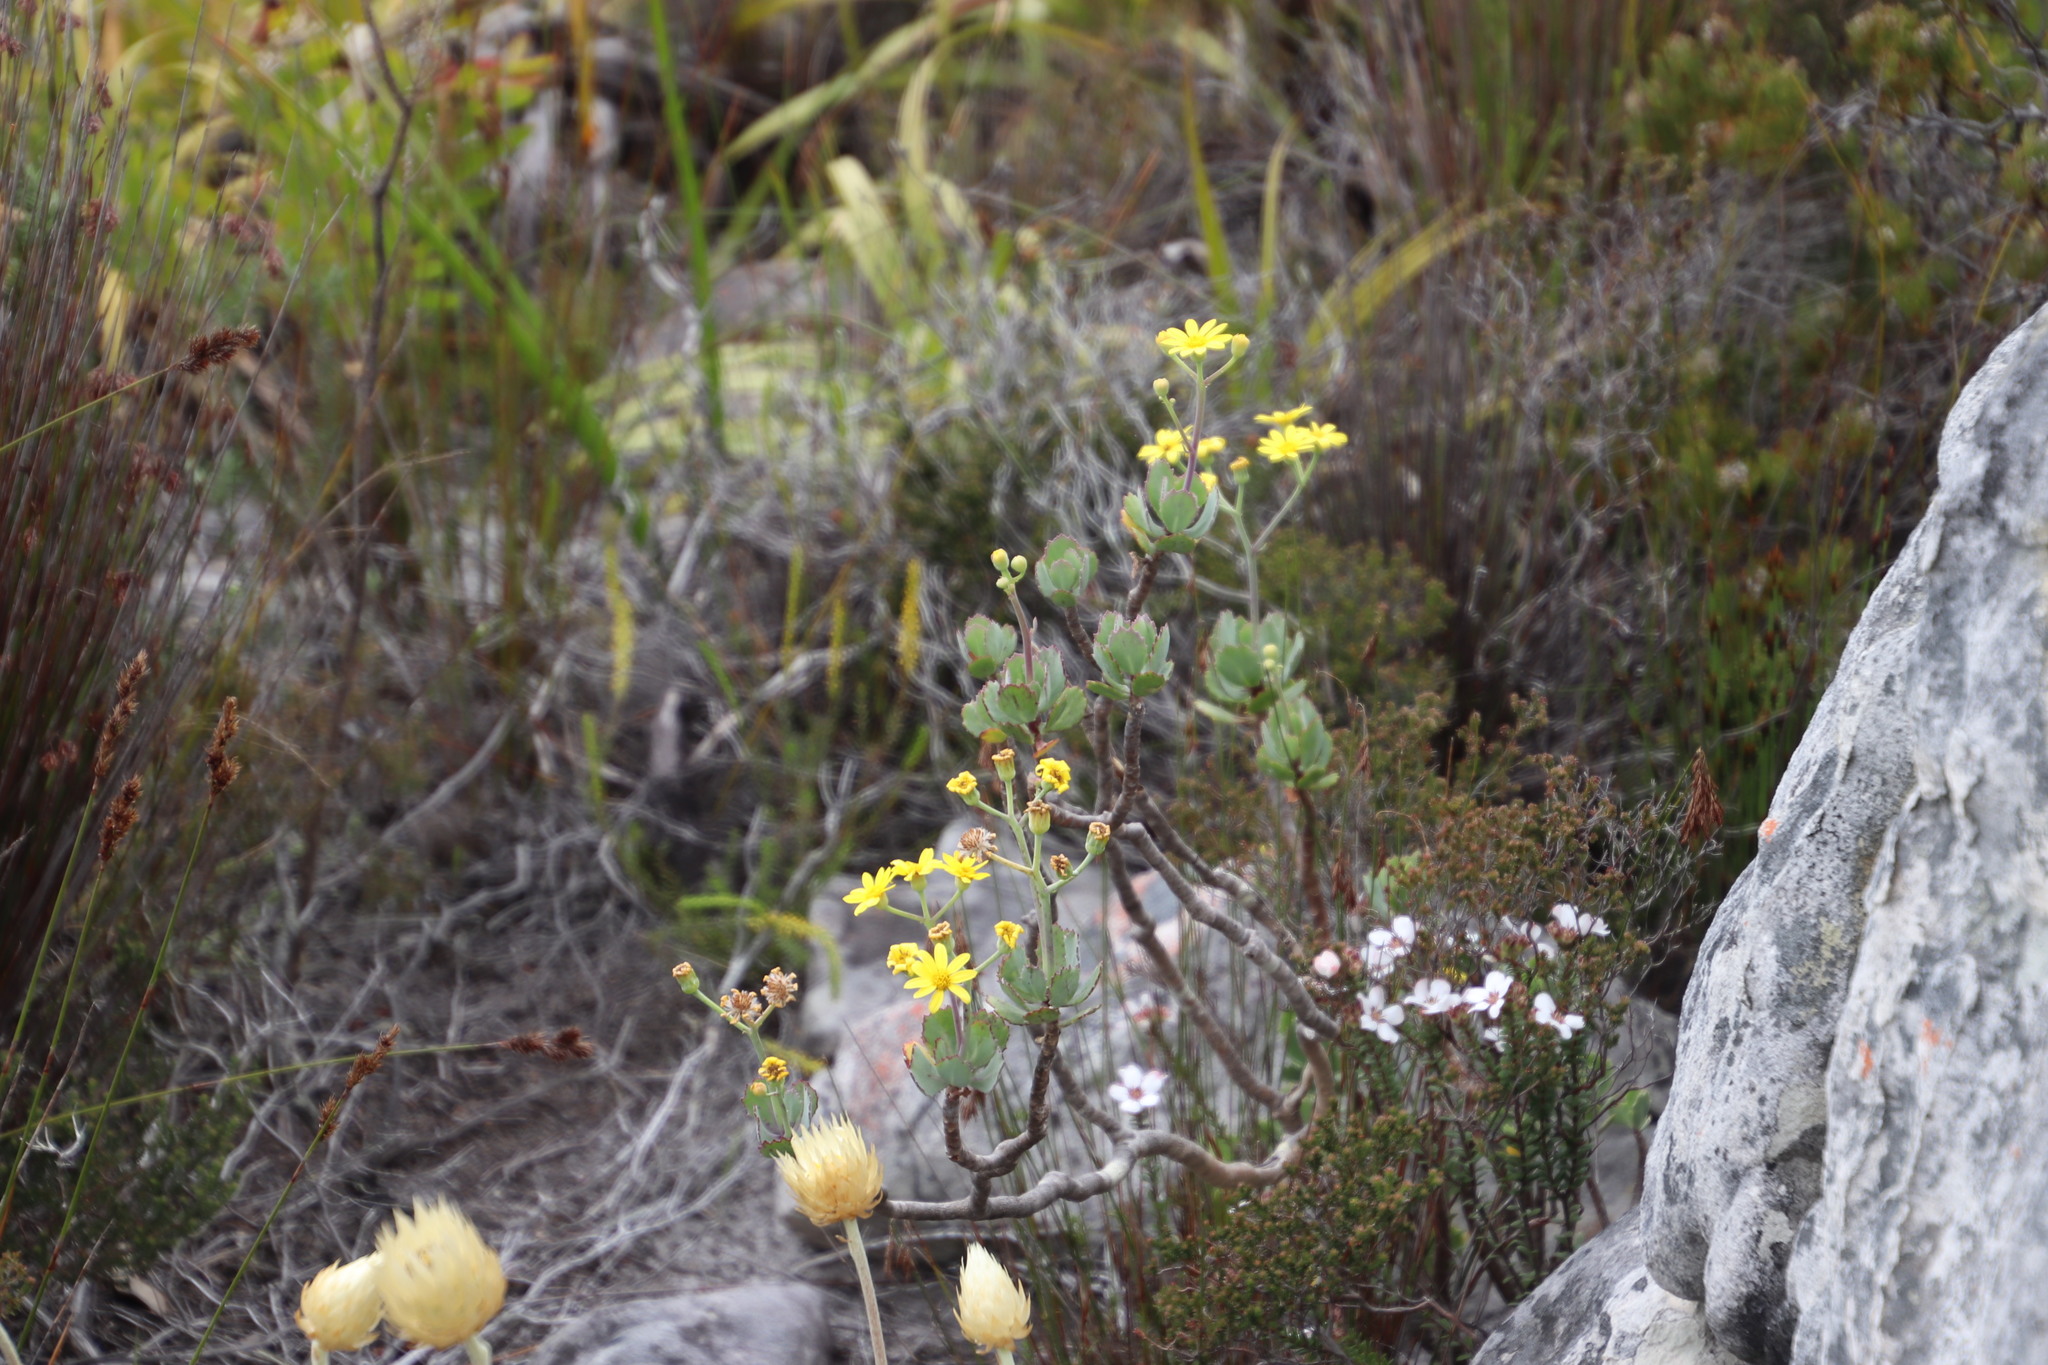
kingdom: Plantae
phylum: Tracheophyta
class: Magnoliopsida
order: Asterales
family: Asteraceae
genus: Othonna
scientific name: Othonna dentata
